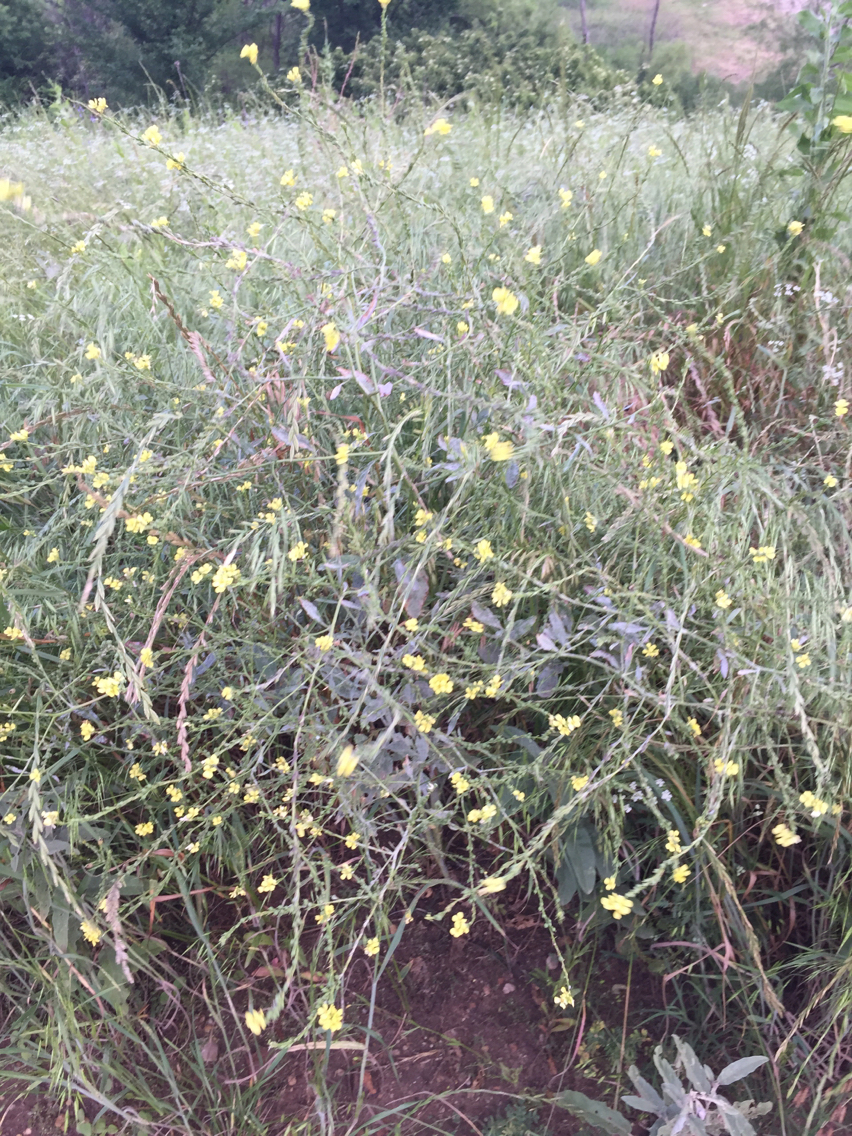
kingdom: Plantae
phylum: Tracheophyta
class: Magnoliopsida
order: Brassicales
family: Brassicaceae
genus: Rapistrum
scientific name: Rapistrum rugosum
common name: Annual bastardcabbage
